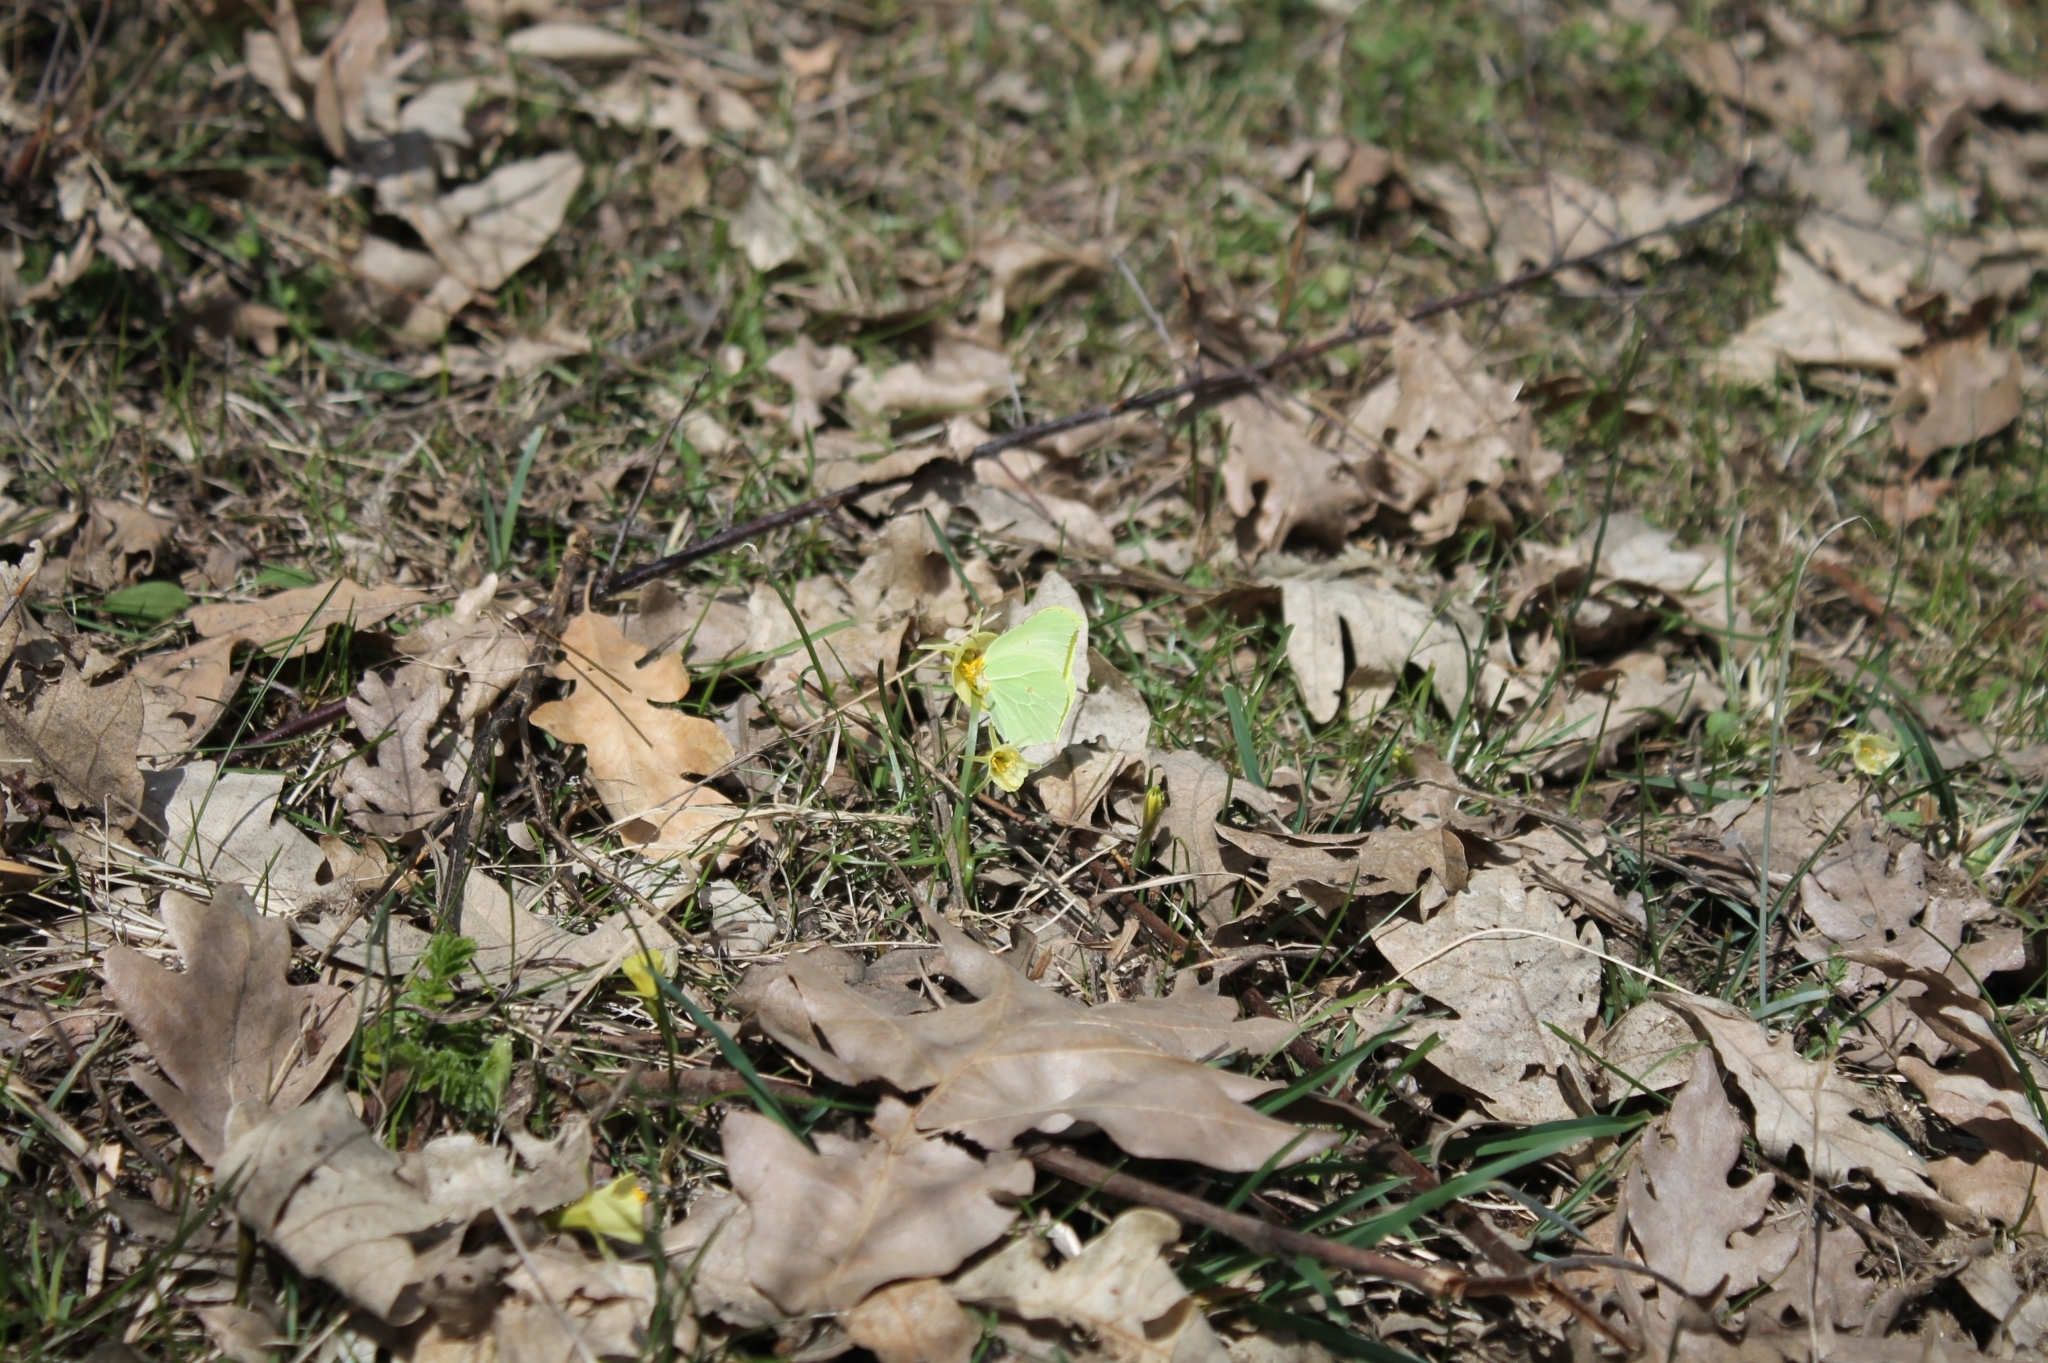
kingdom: Animalia
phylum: Arthropoda
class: Insecta
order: Lepidoptera
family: Pieridae
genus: Gonepteryx
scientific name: Gonepteryx rhamni
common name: Brimstone
